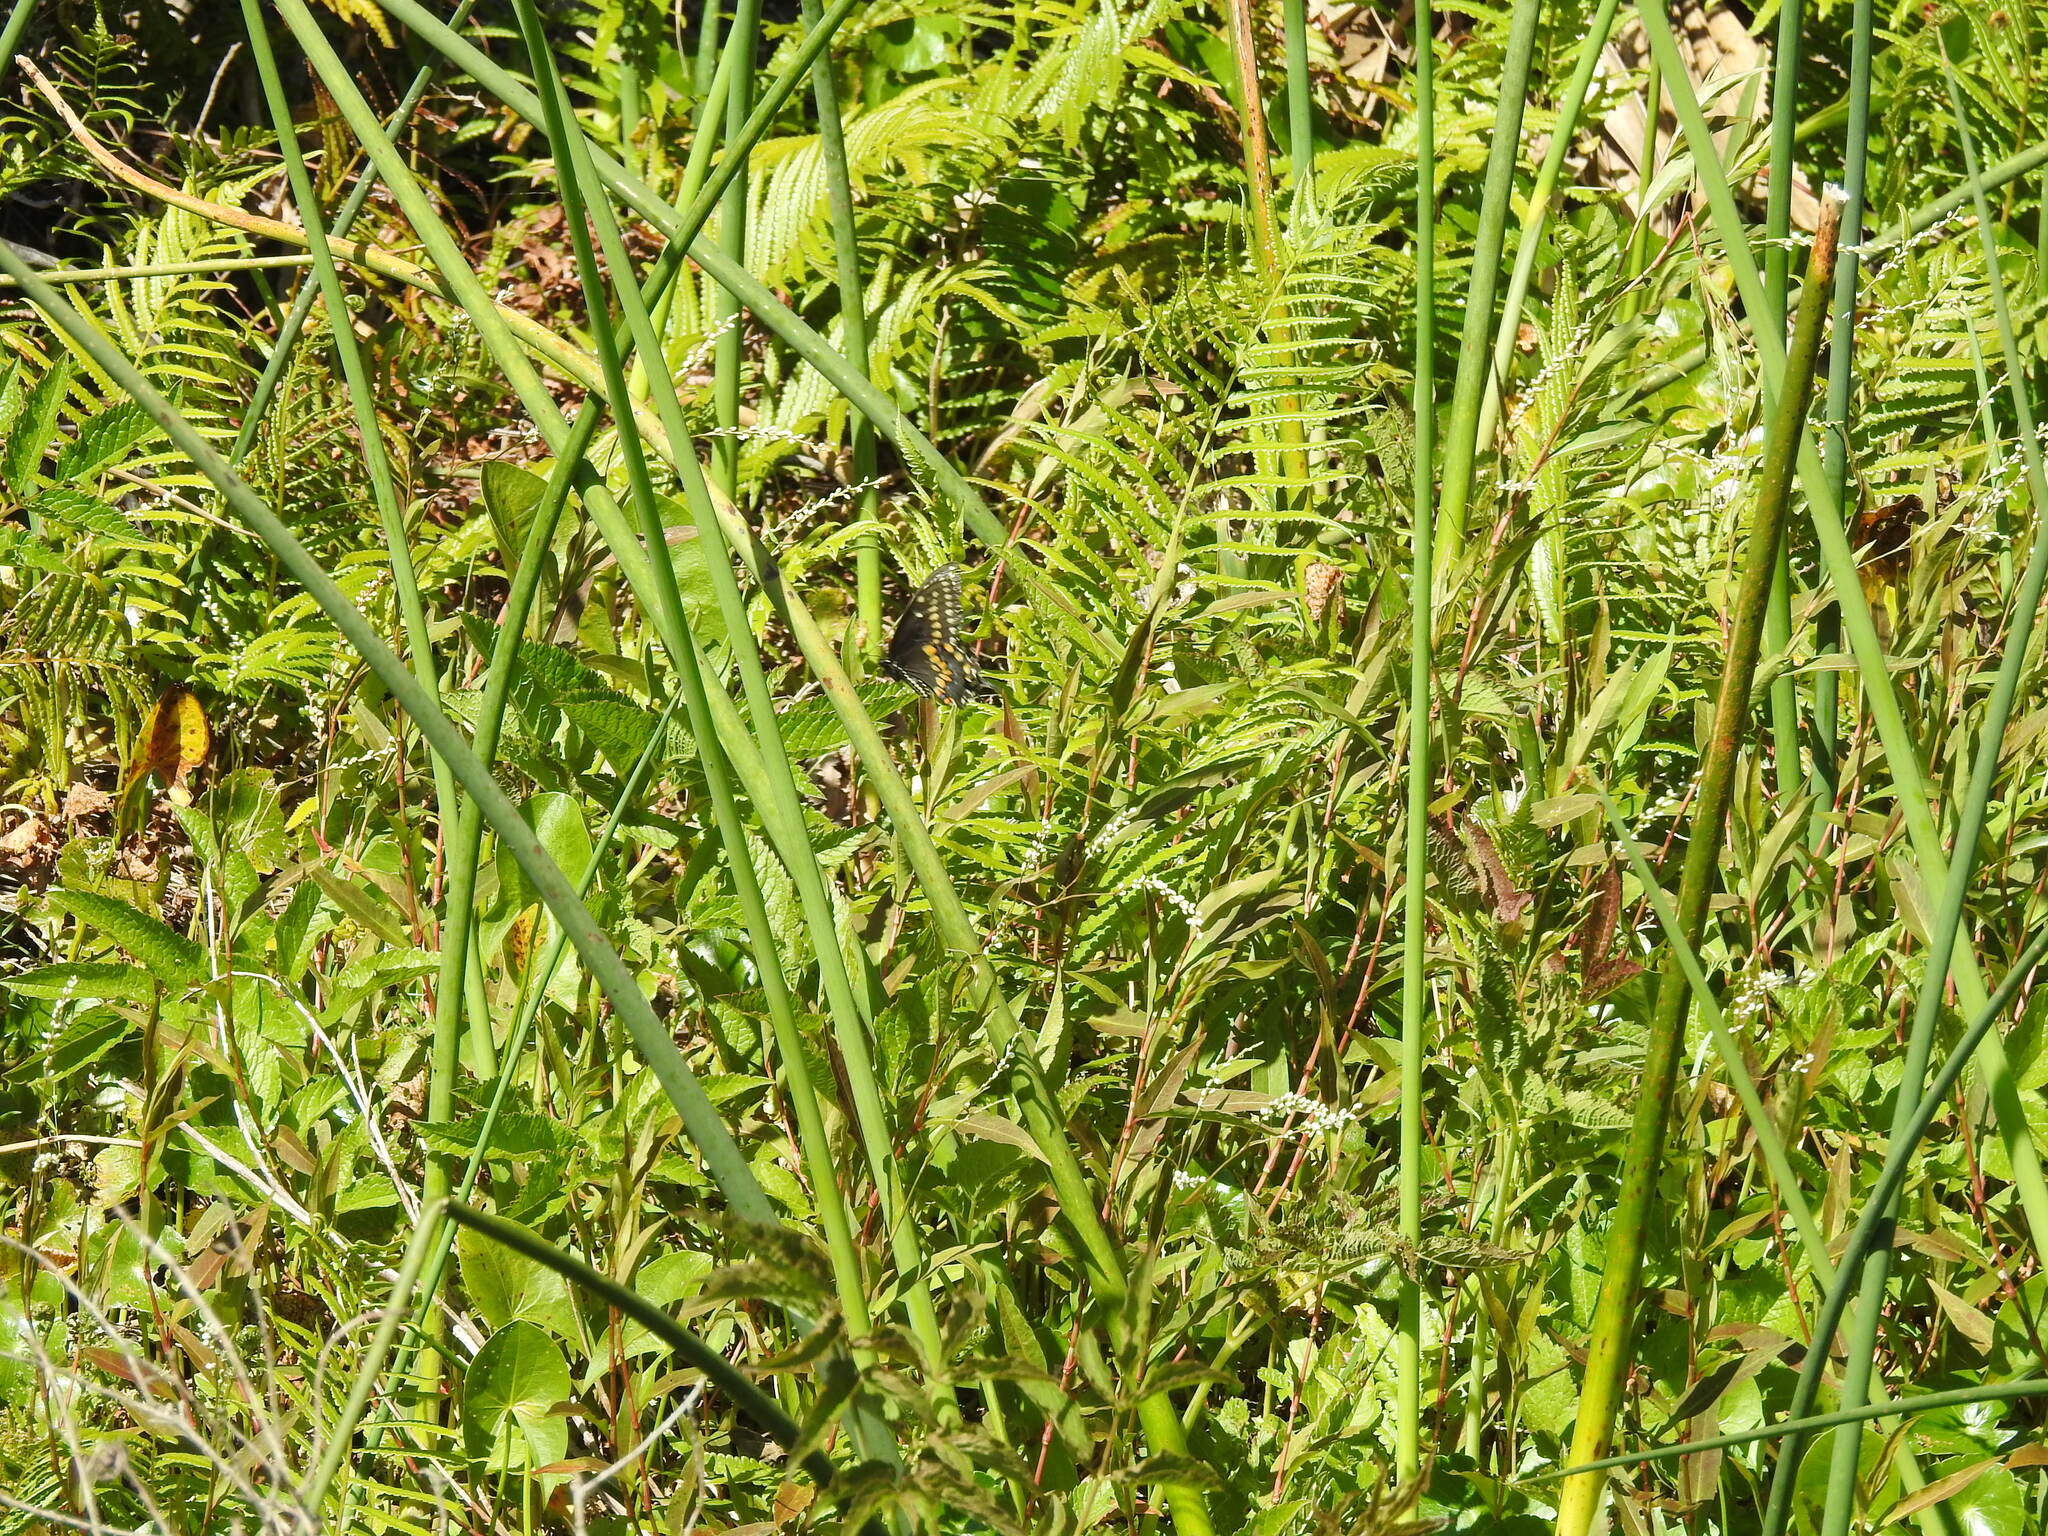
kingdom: Animalia
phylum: Arthropoda
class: Insecta
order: Lepidoptera
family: Papilionidae
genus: Papilio
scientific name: Papilio polyxenes
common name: Black swallowtail
